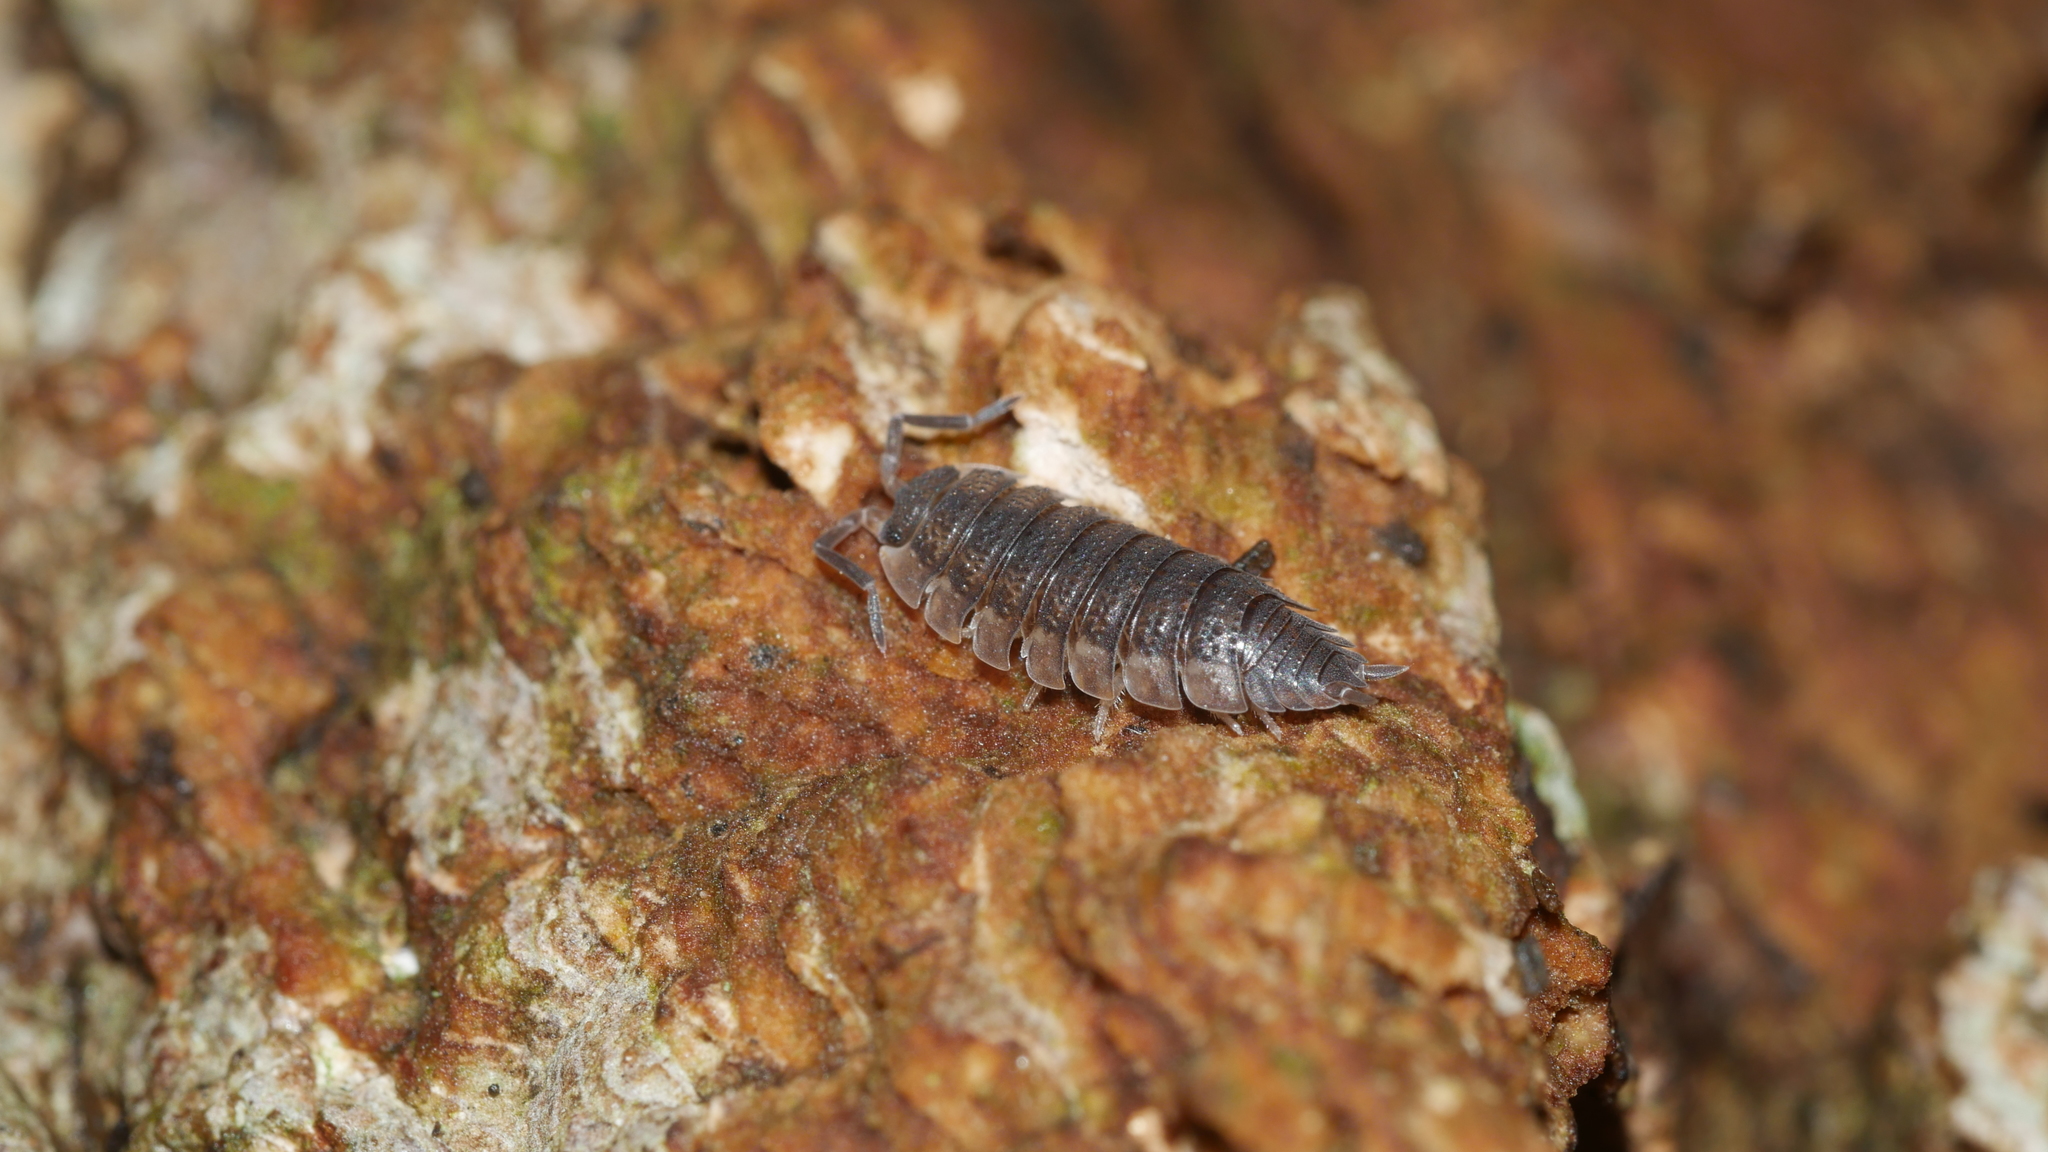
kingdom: Animalia
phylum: Arthropoda
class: Malacostraca
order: Isopoda
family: Porcellionidae
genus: Porcellio
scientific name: Porcellio scaber
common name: Common rough woodlouse
